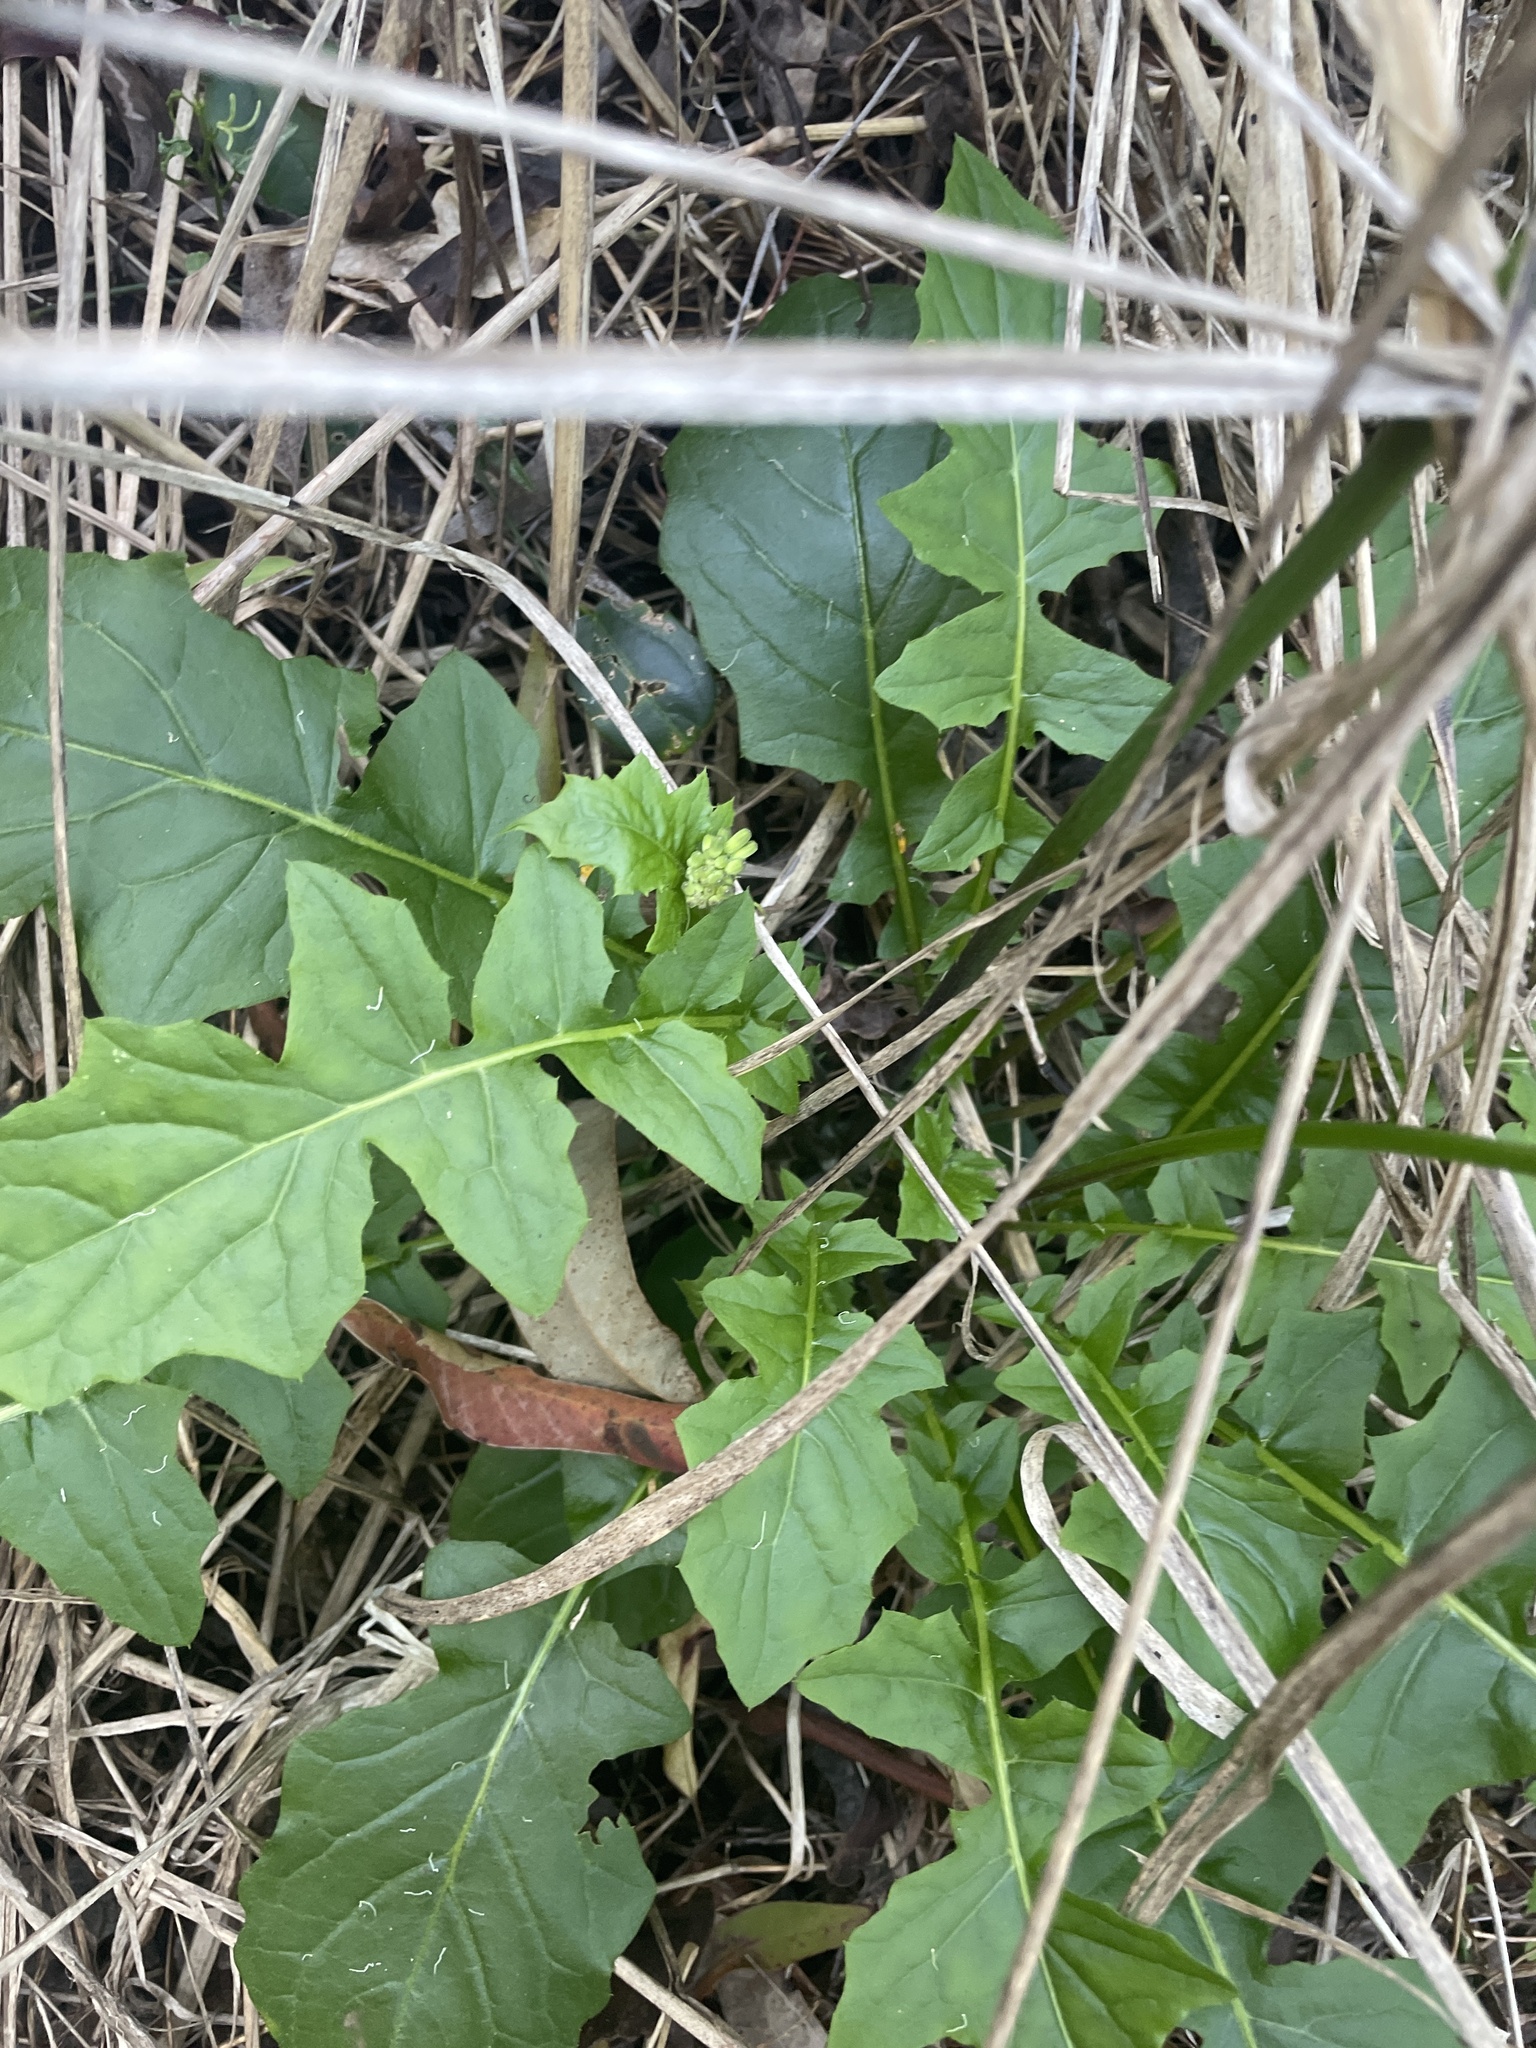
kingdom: Plantae
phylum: Tracheophyta
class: Magnoliopsida
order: Asterales
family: Asteraceae
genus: Youngia
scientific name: Youngia japonica
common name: Oriental false hawksbeard
